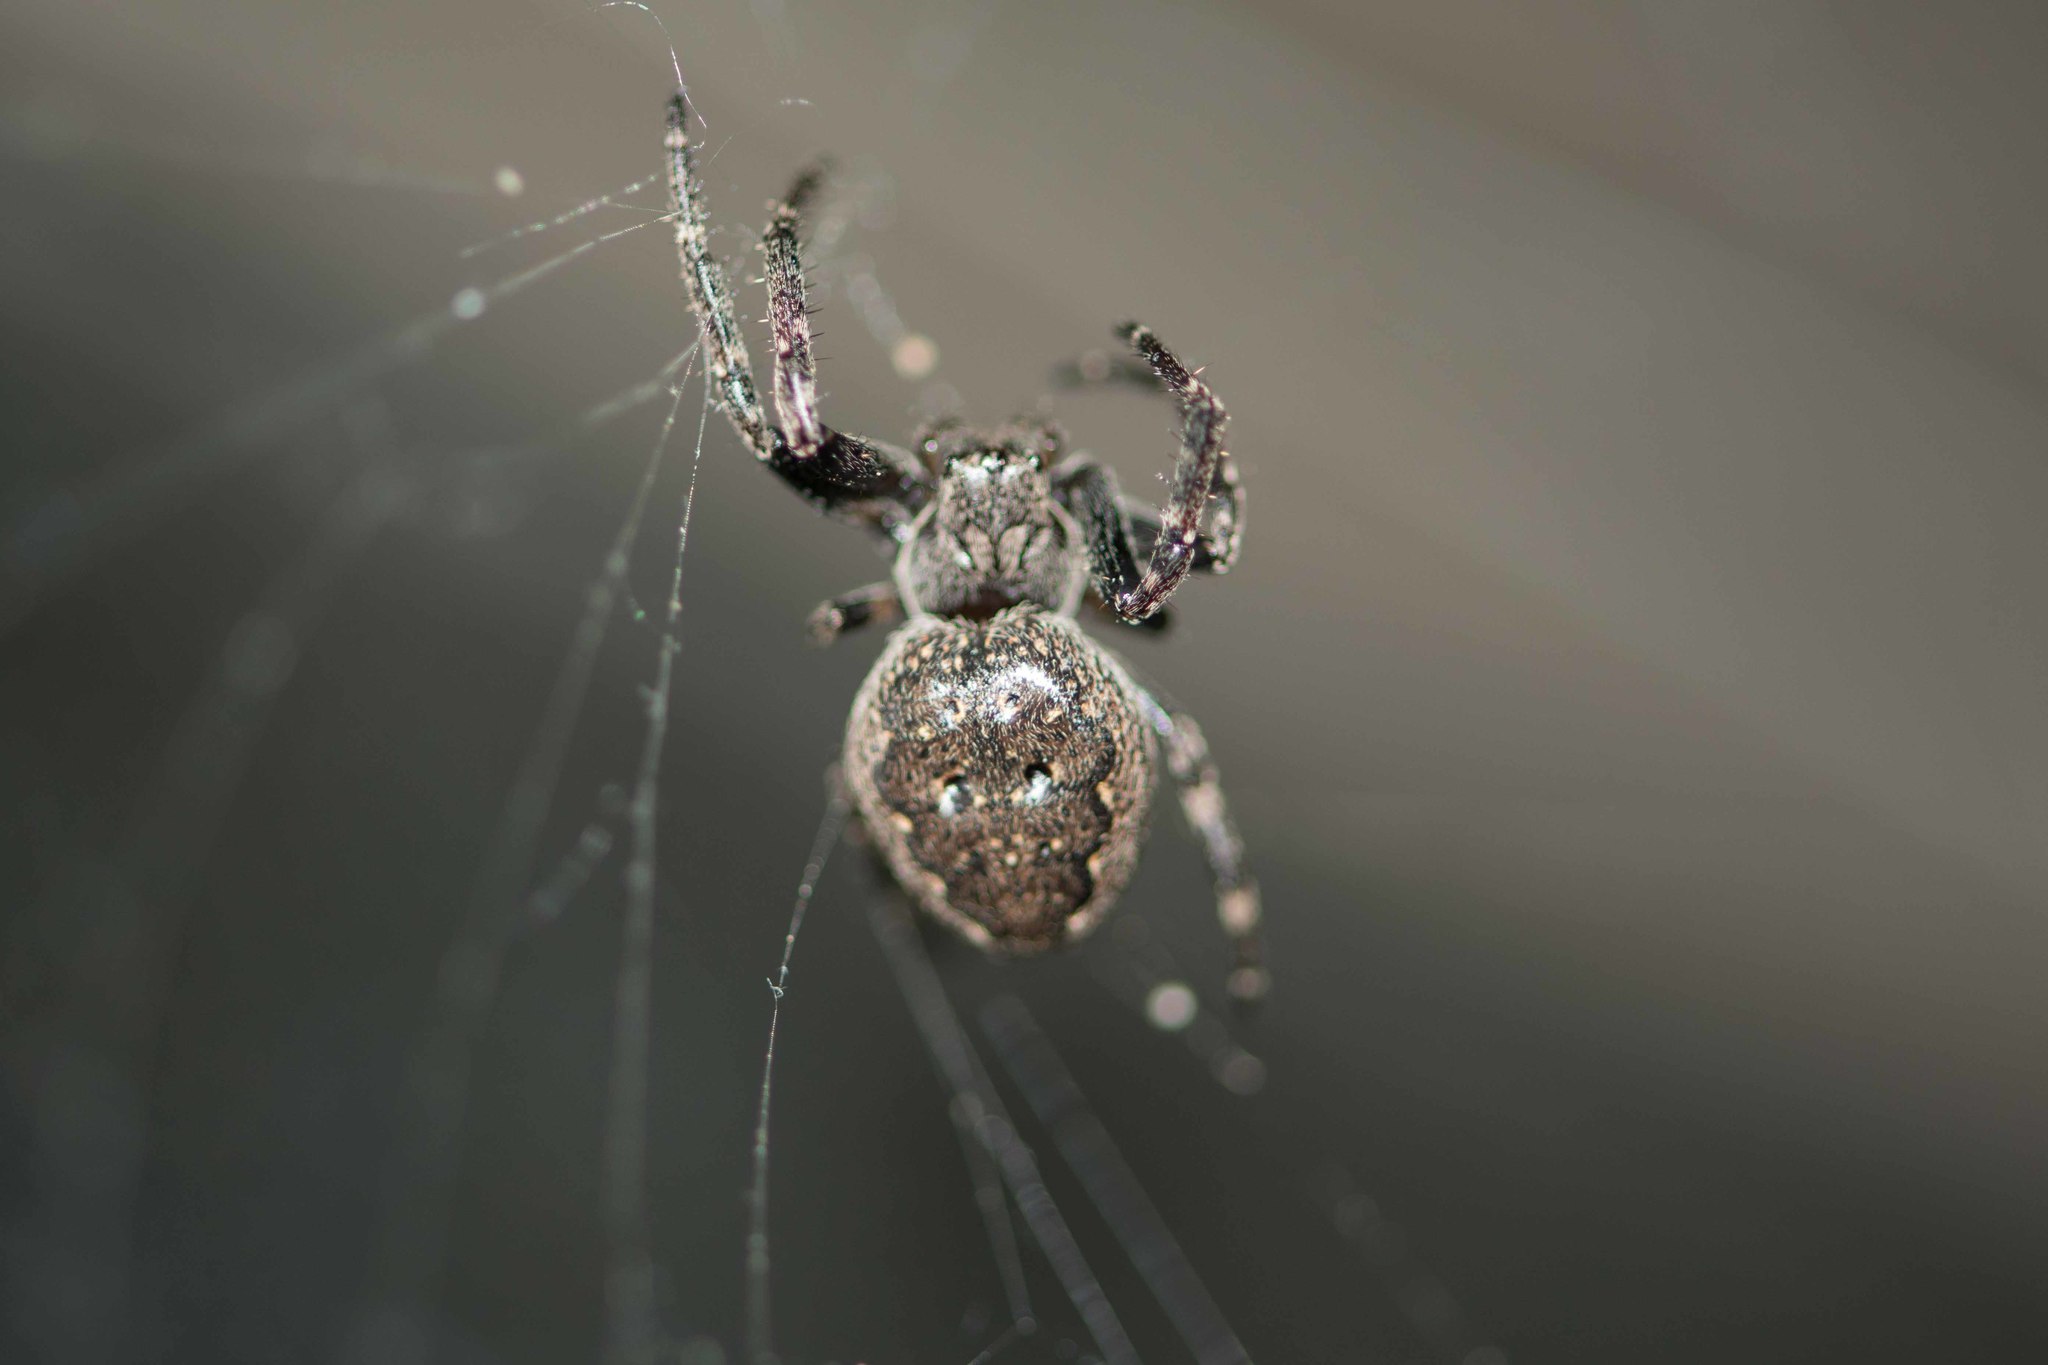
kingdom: Animalia
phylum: Arthropoda
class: Arachnida
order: Araneae
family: Araneidae
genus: Nuctenea
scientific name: Nuctenea umbratica
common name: Toad spider
